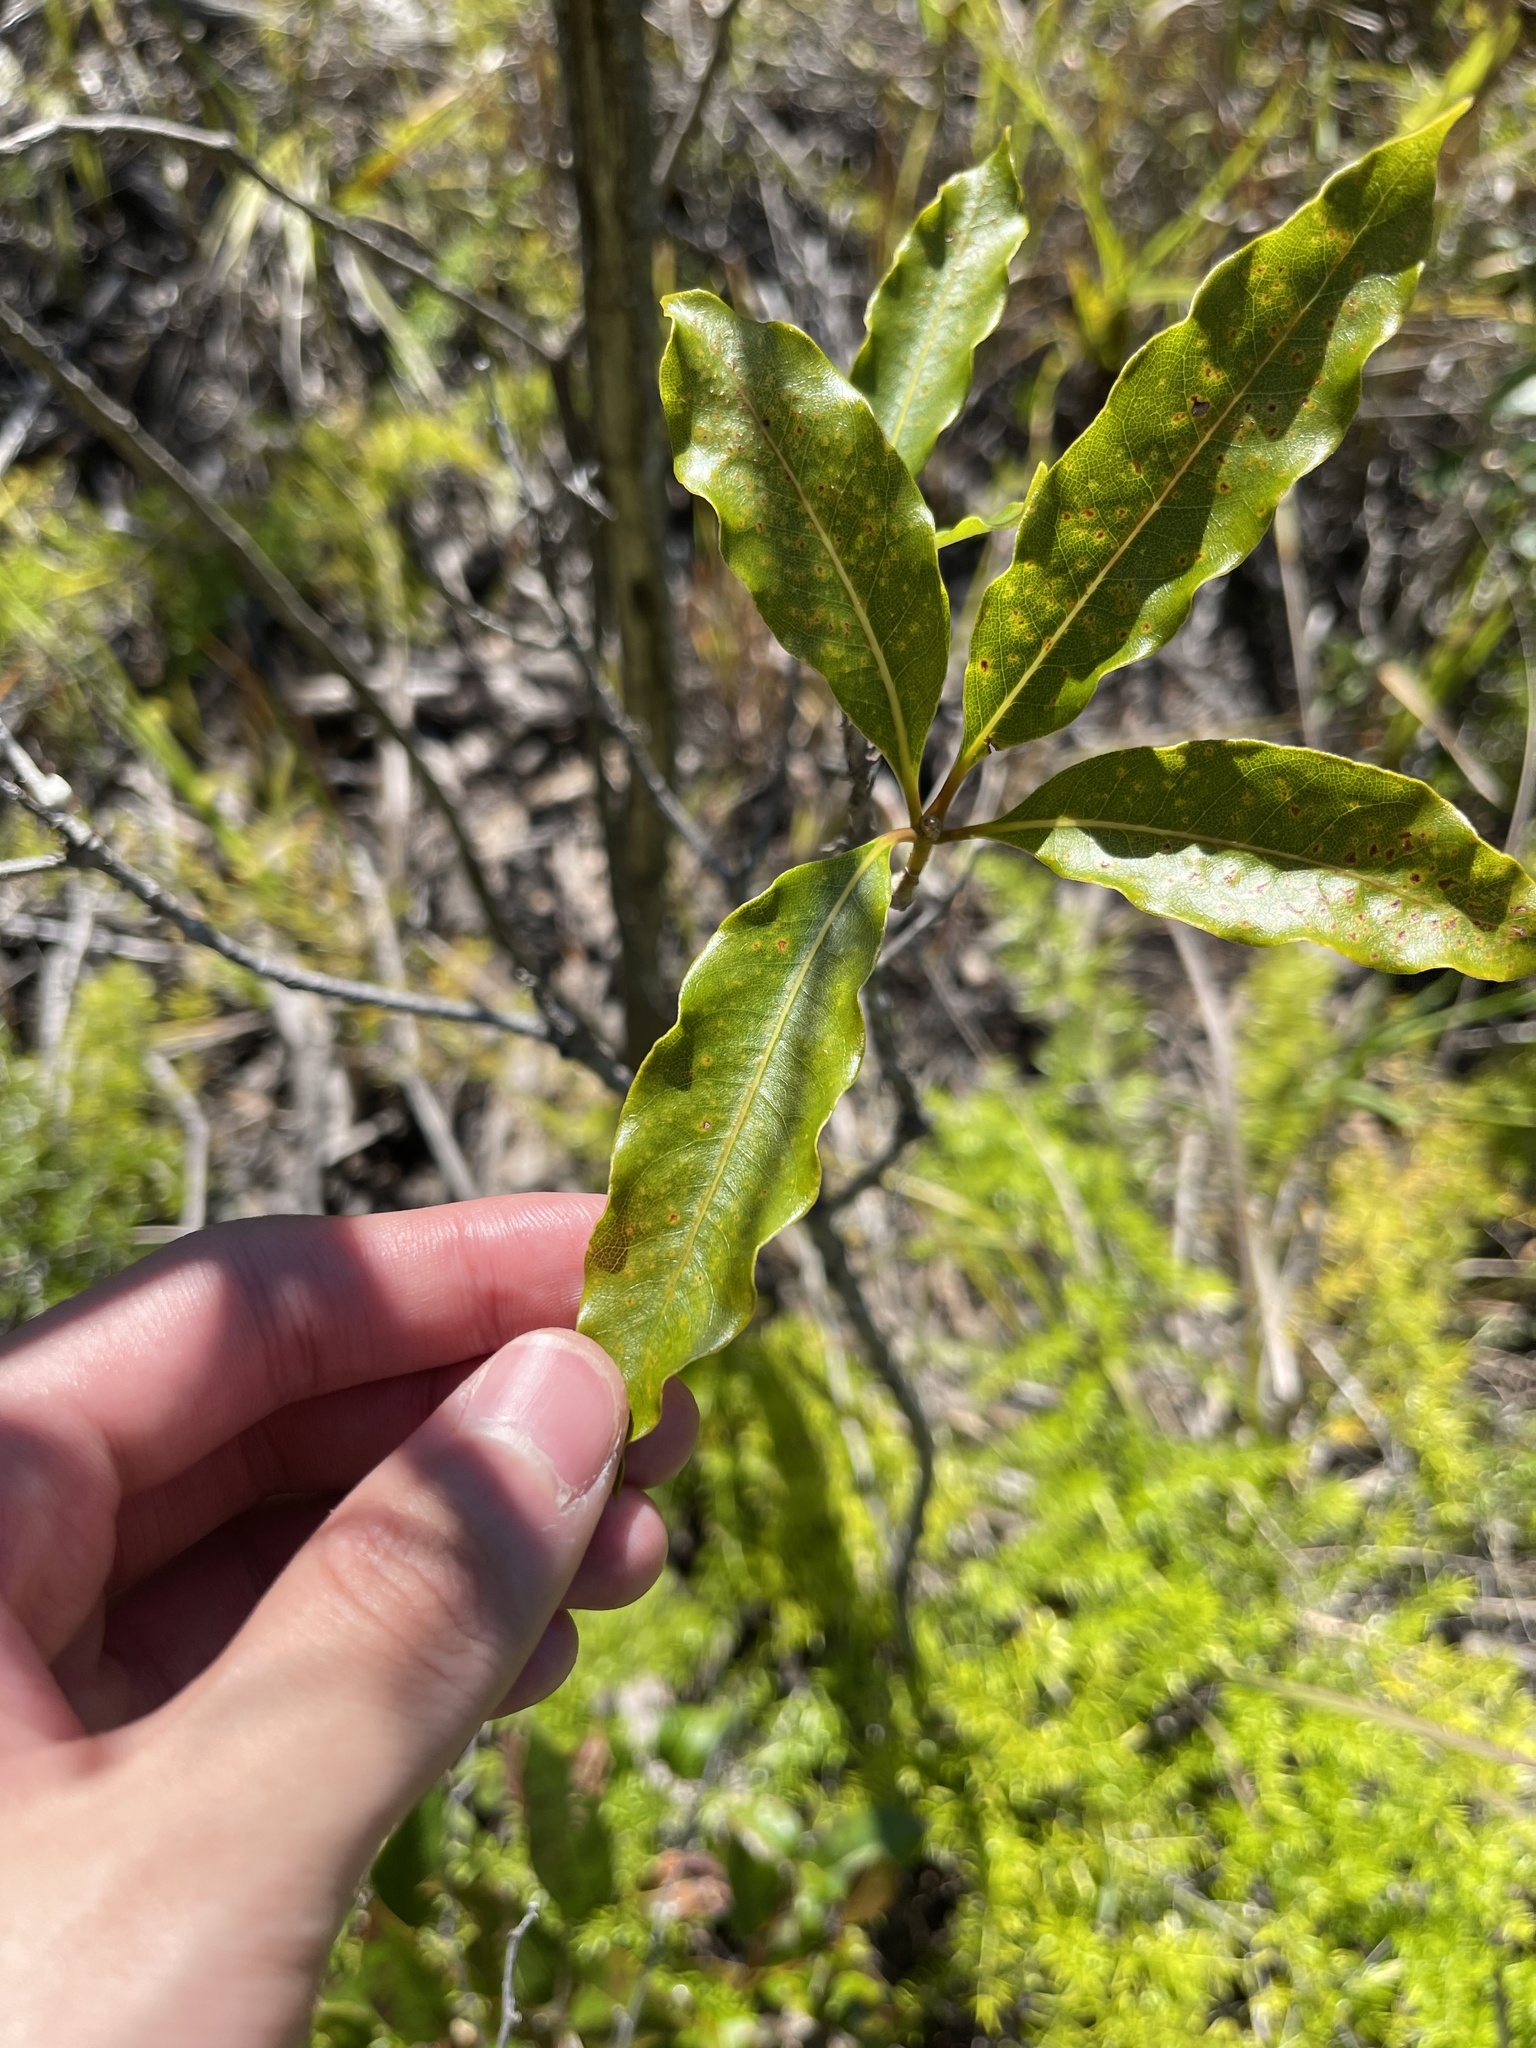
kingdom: Plantae
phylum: Tracheophyta
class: Magnoliopsida
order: Apiales
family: Pittosporaceae
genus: Pittosporum
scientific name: Pittosporum undulatum
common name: Australian cheesewood
